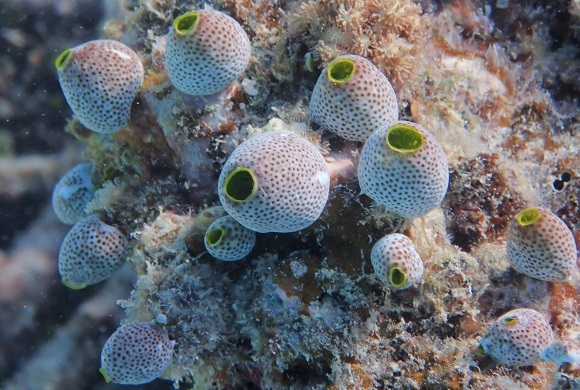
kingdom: Animalia
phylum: Chordata
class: Ascidiacea
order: Aplousobranchia
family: Didemnidae
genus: Didemnum
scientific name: Didemnum molle
